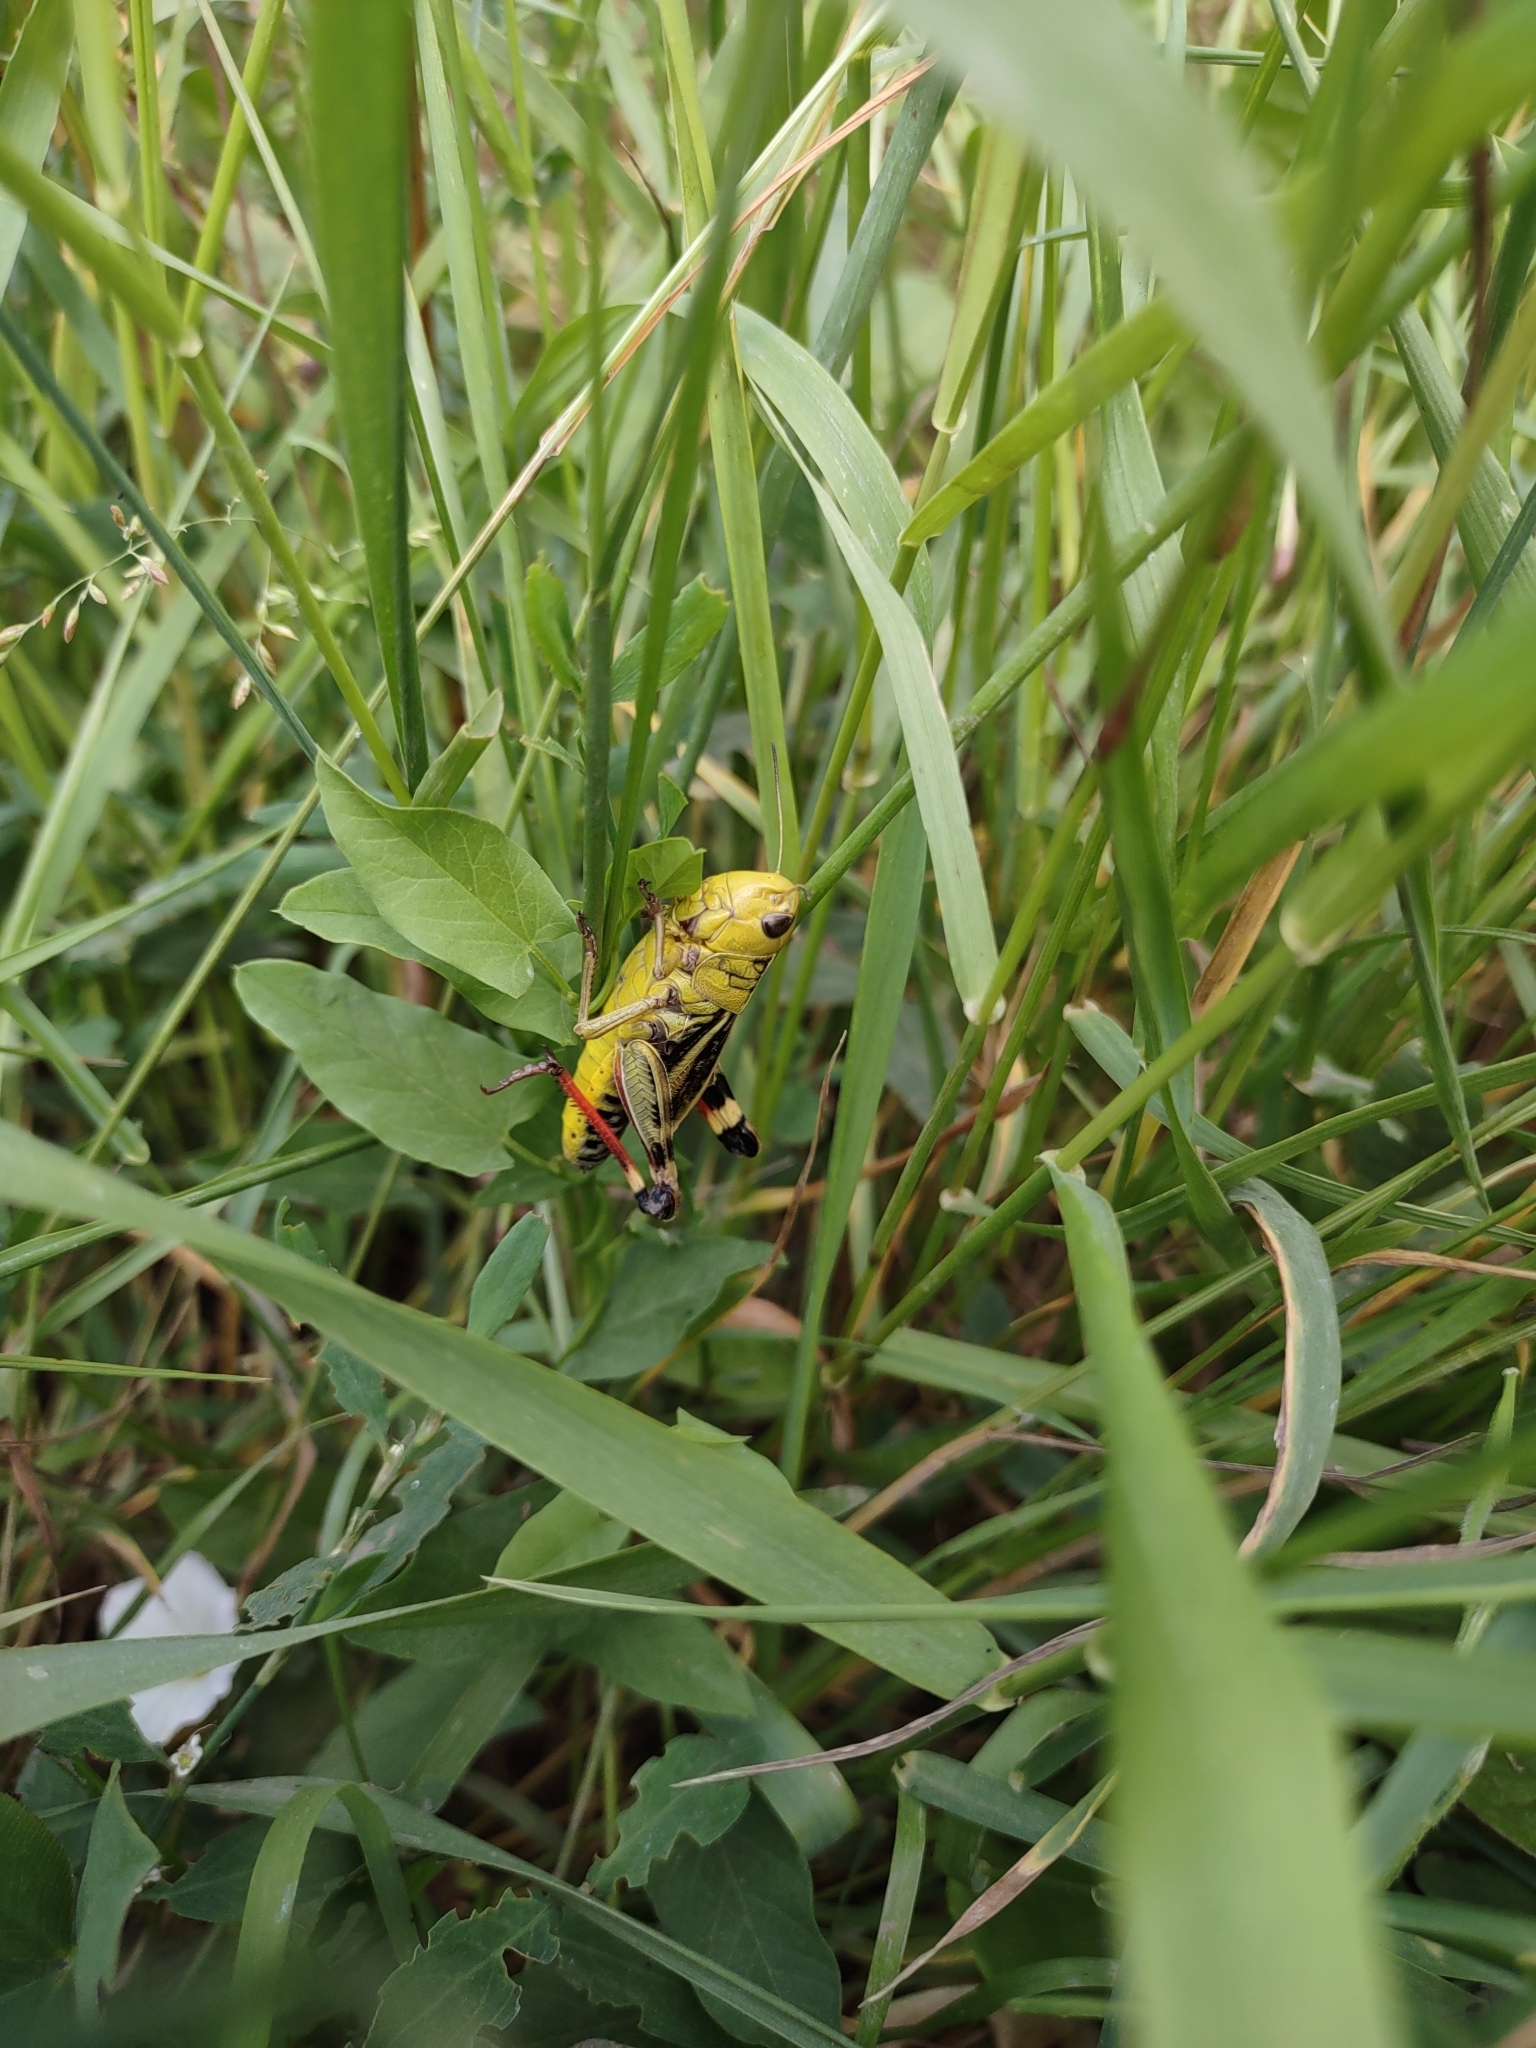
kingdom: Animalia
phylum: Arthropoda
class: Insecta
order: Orthoptera
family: Acrididae
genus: Arcyptera
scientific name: Arcyptera fusca
